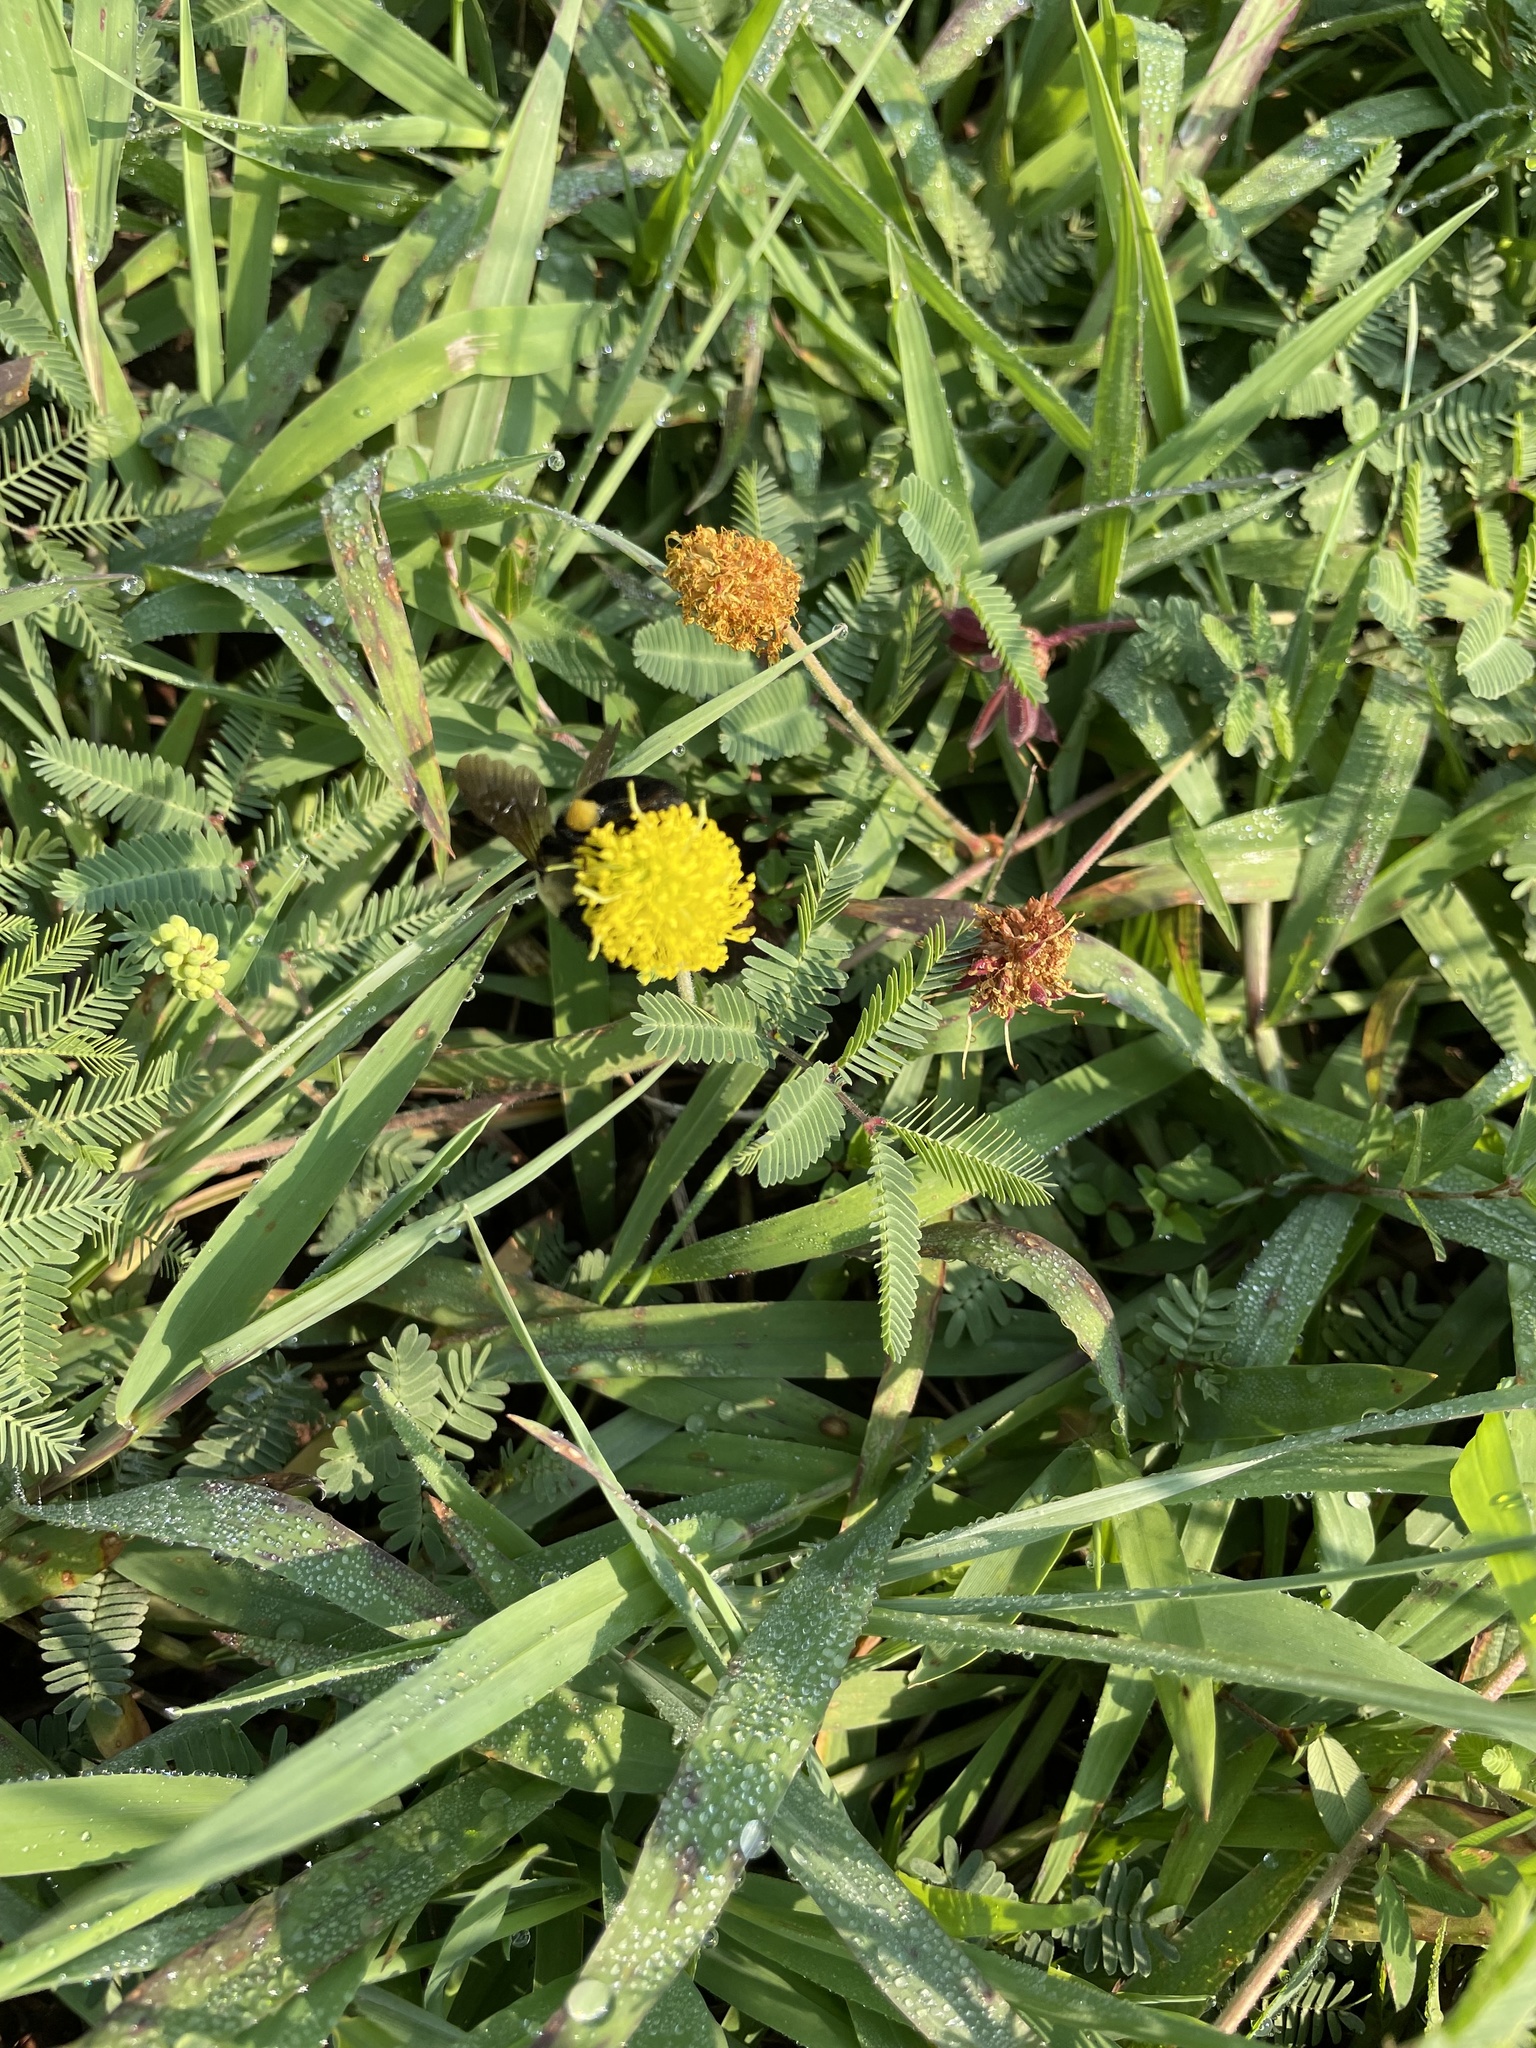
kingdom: Plantae
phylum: Tracheophyta
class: Magnoliopsida
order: Fabales
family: Fabaceae
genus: Neptunia
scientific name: Neptunia lutea
